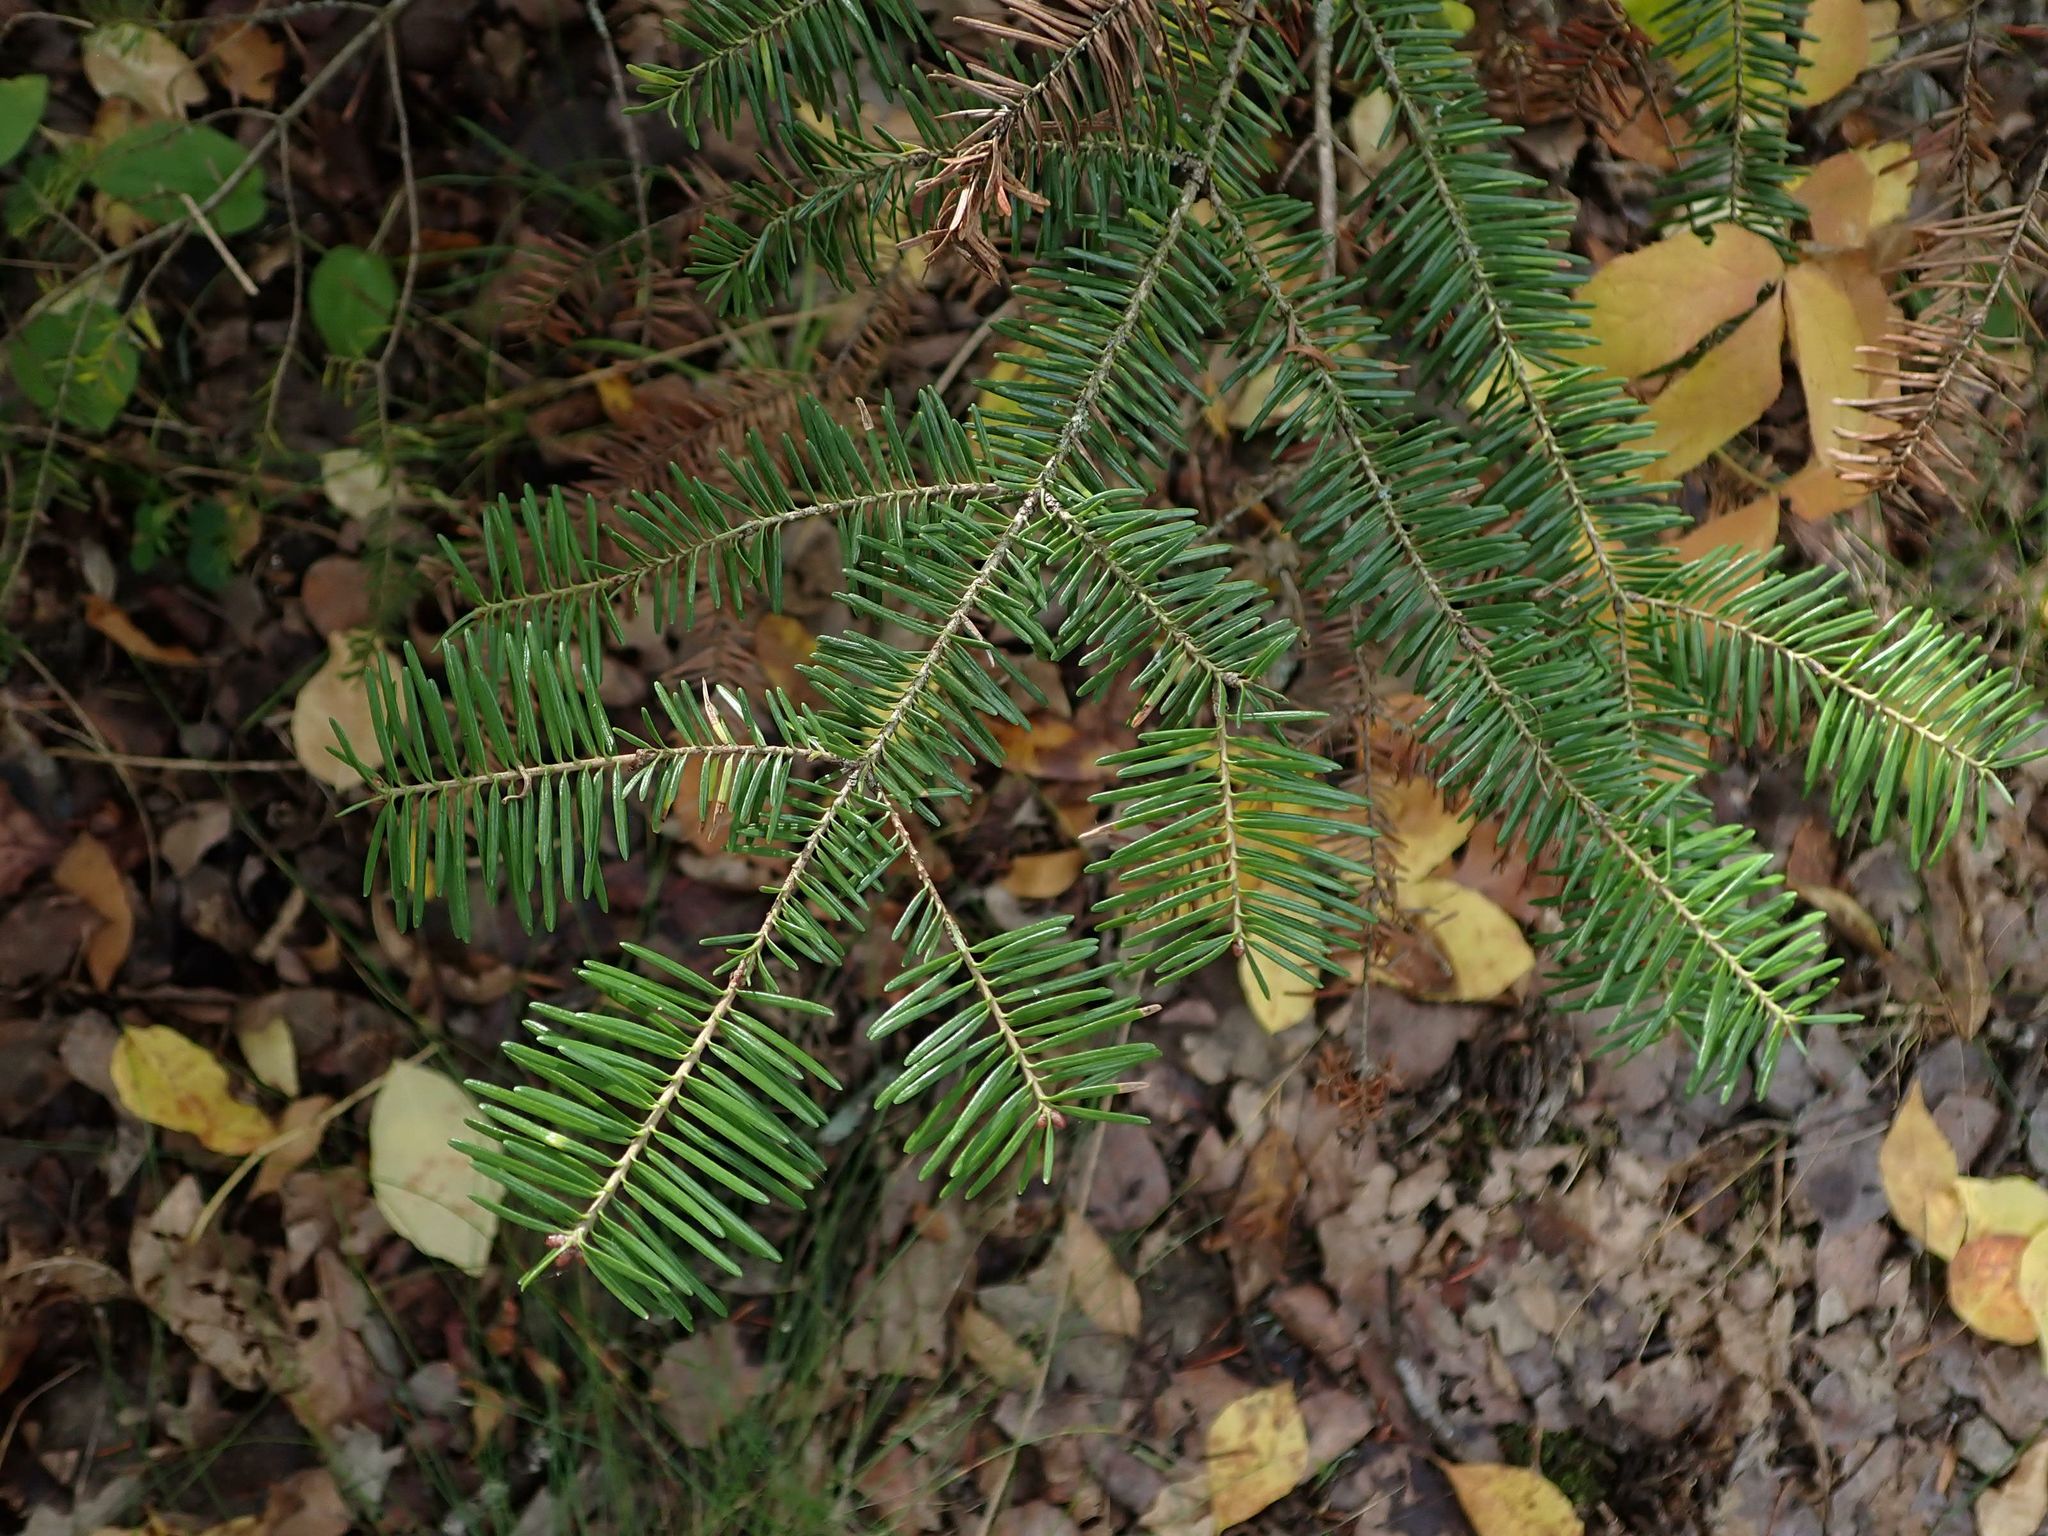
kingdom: Plantae
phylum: Tracheophyta
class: Pinopsida
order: Pinales
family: Pinaceae
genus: Abies
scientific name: Abies balsamea
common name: Balsam fir
